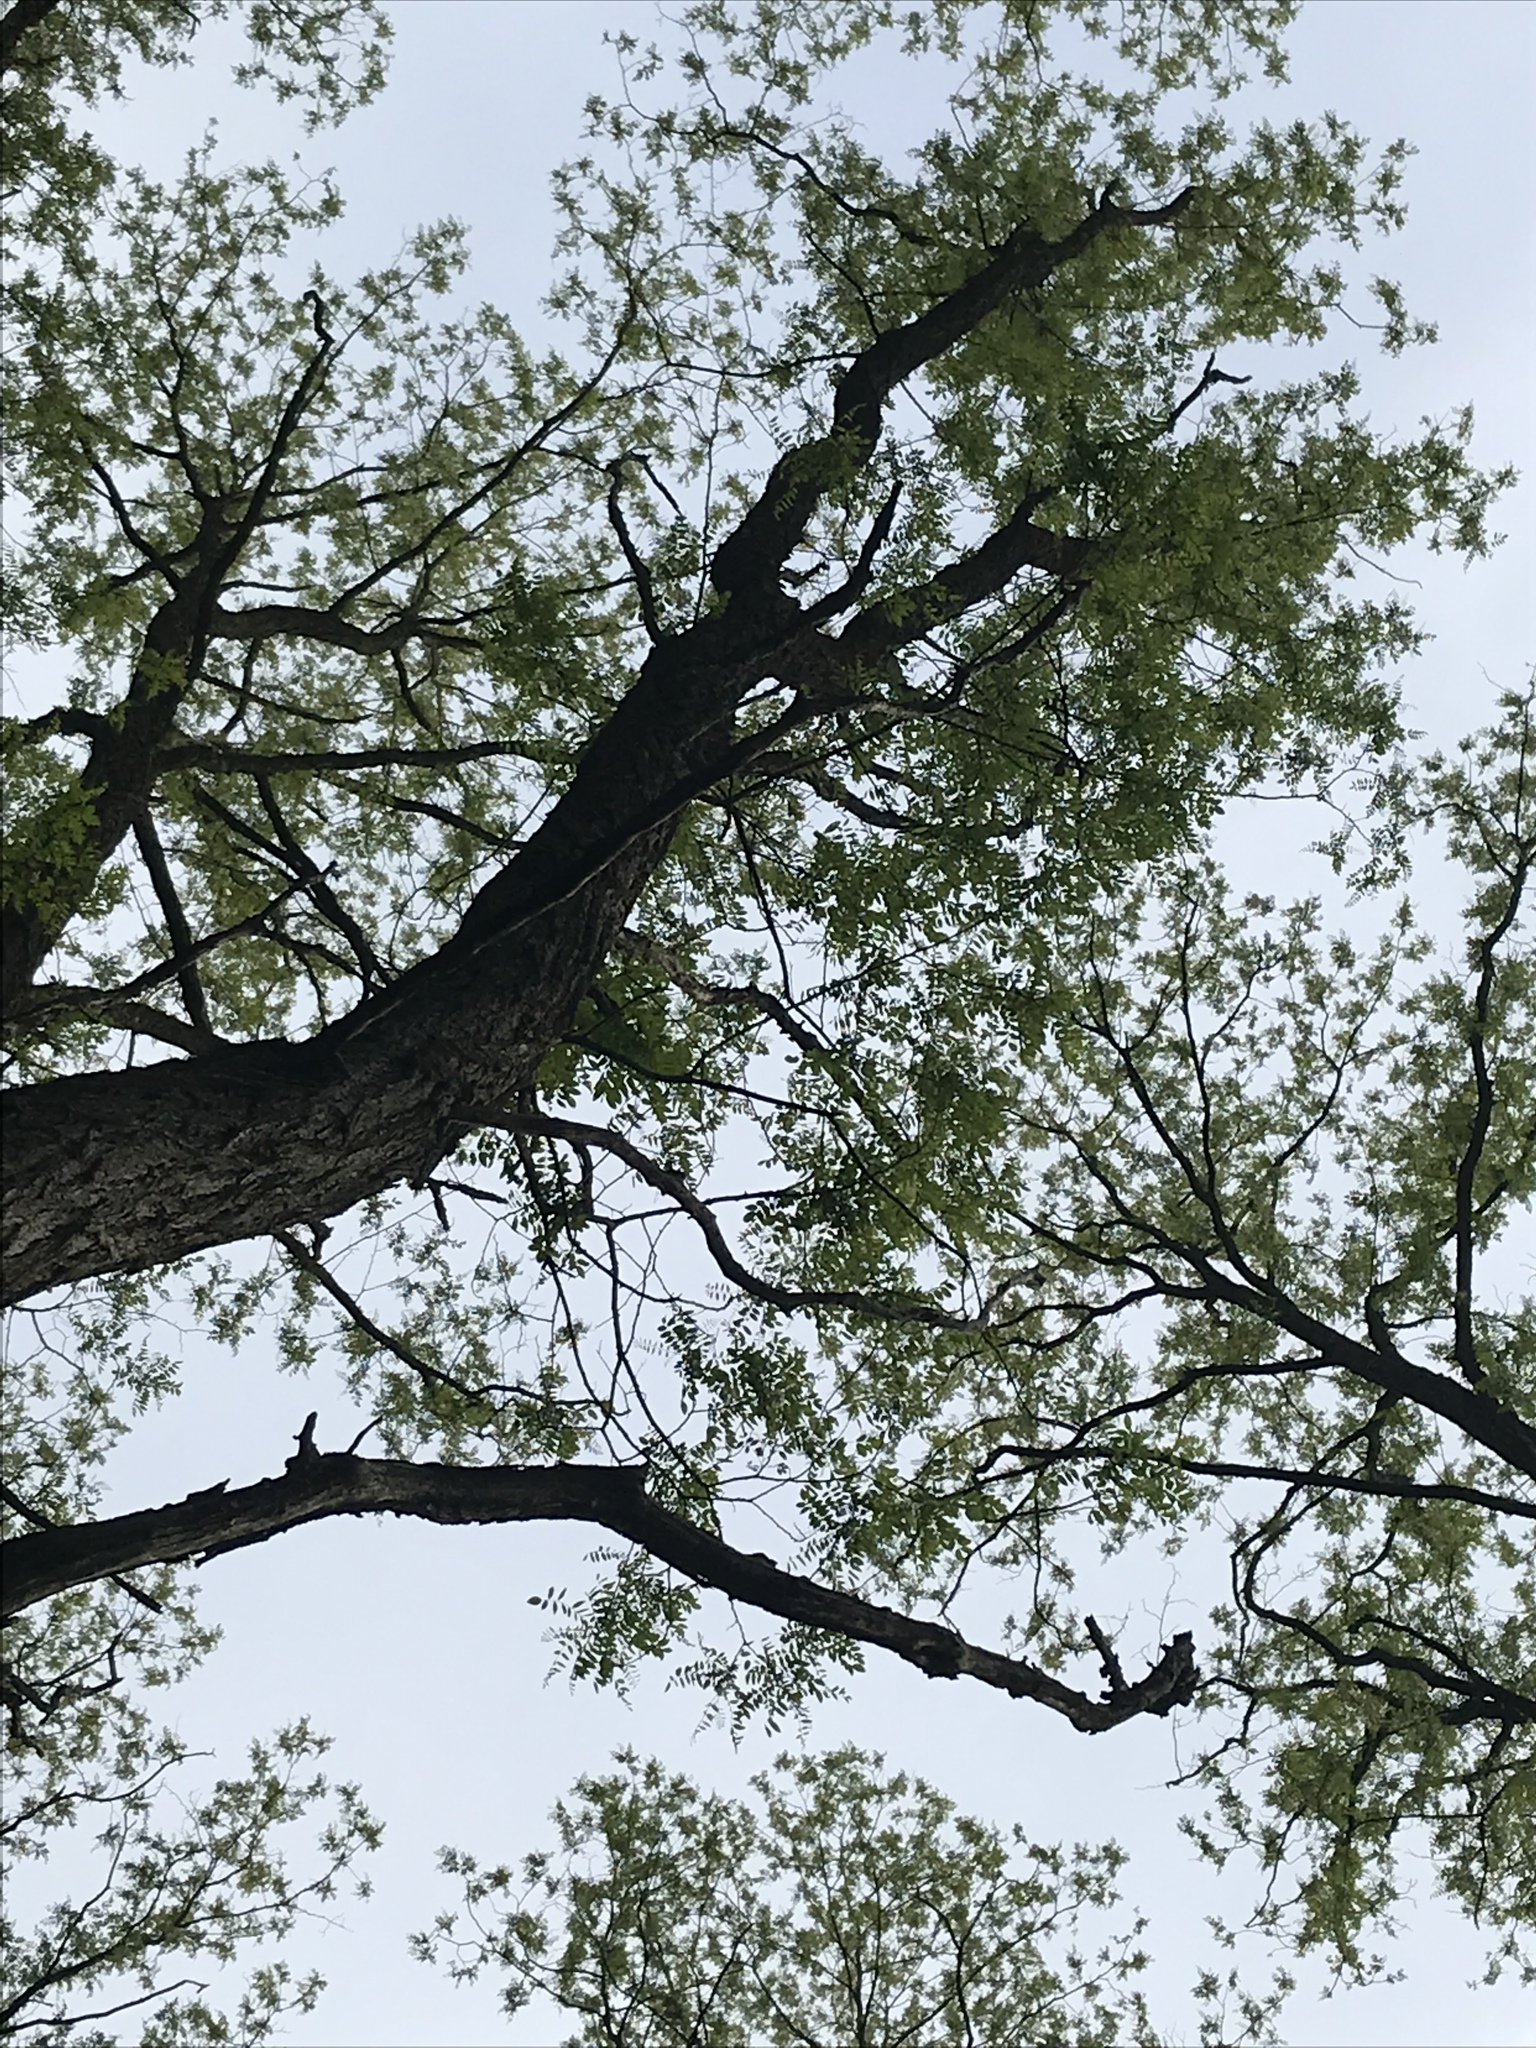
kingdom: Plantae
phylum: Tracheophyta
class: Magnoliopsida
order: Fabales
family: Fabaceae
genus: Robinia
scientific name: Robinia pseudoacacia
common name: Black locust
